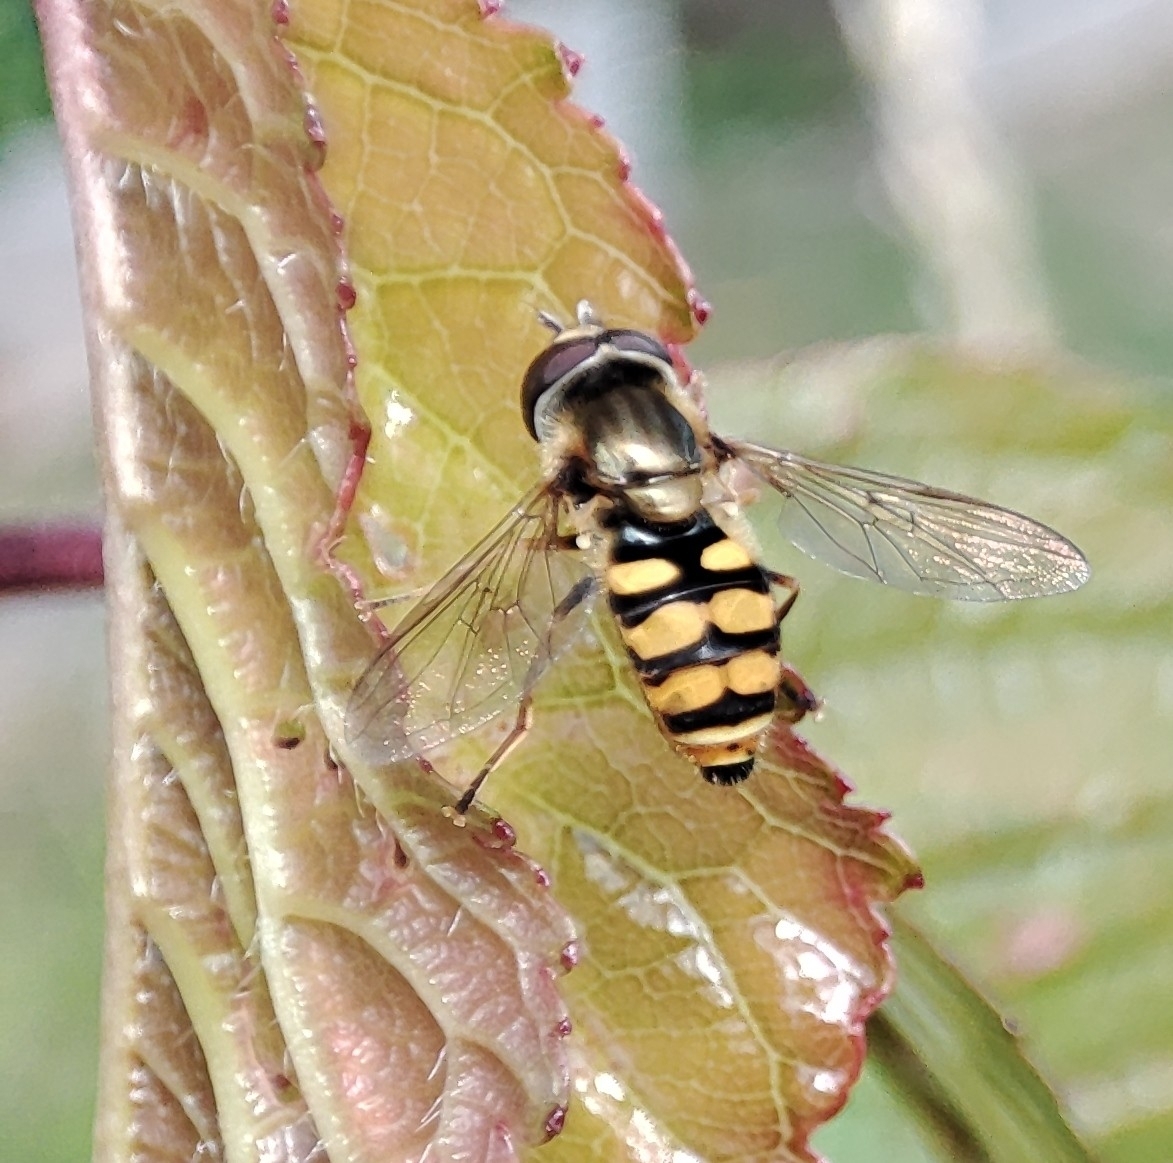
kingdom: Animalia
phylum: Arthropoda
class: Insecta
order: Diptera
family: Syrphidae
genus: Eupeodes
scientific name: Eupeodes corollae
